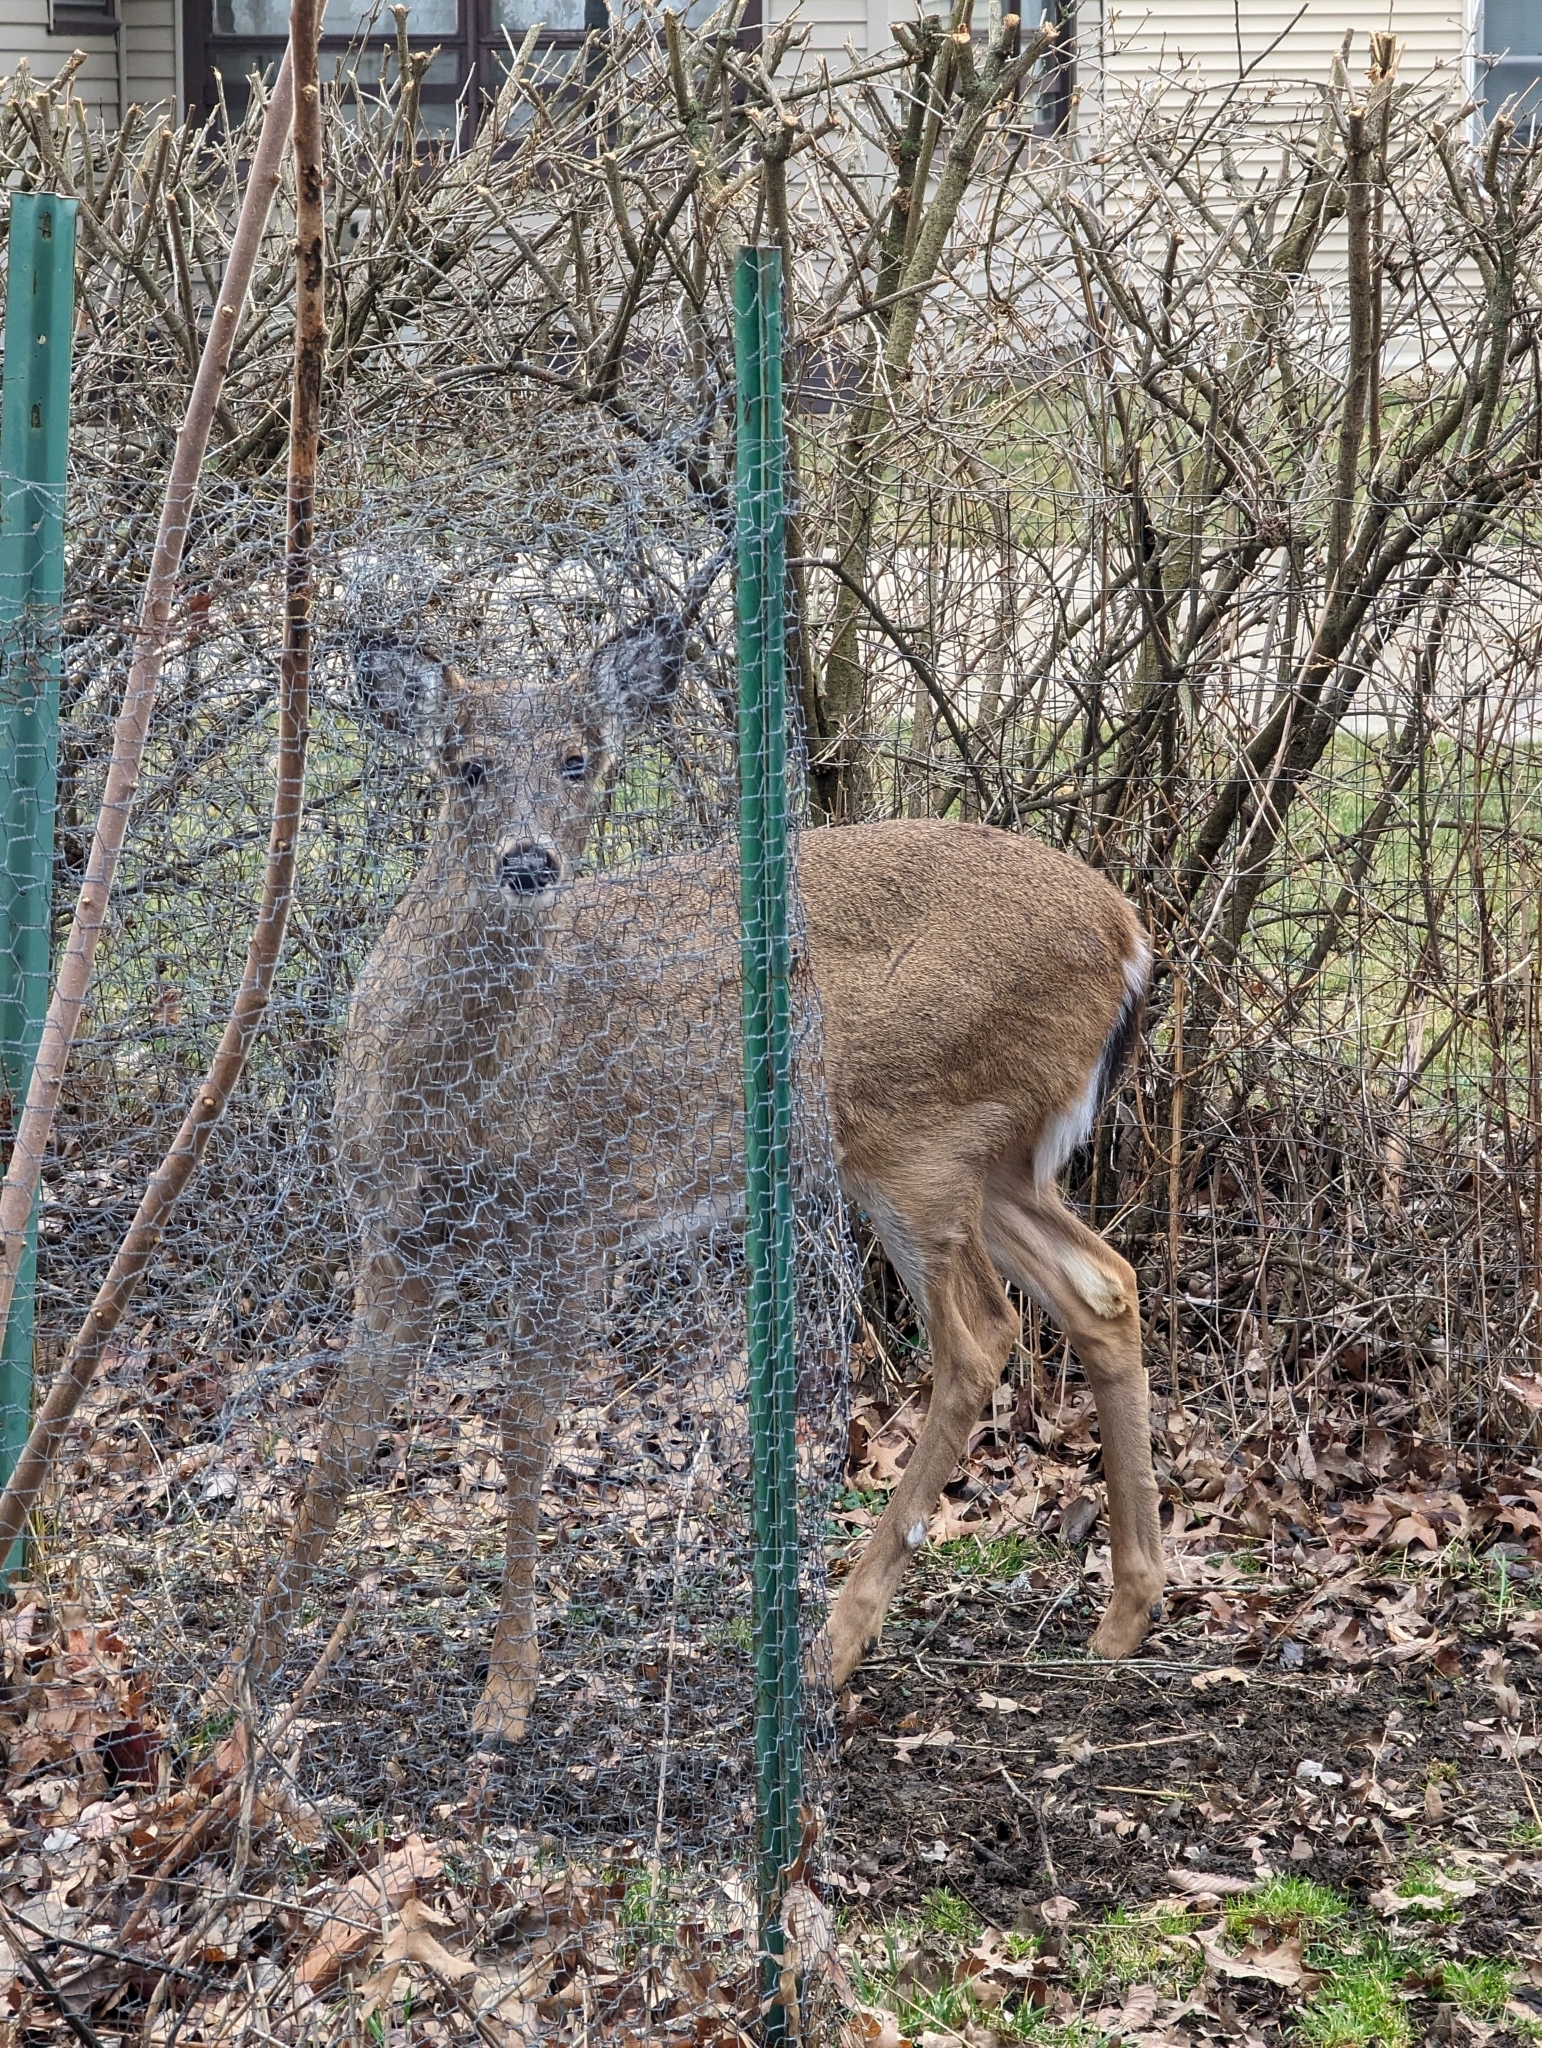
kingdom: Animalia
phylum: Chordata
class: Mammalia
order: Artiodactyla
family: Cervidae
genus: Odocoileus
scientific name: Odocoileus virginianus
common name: White-tailed deer
